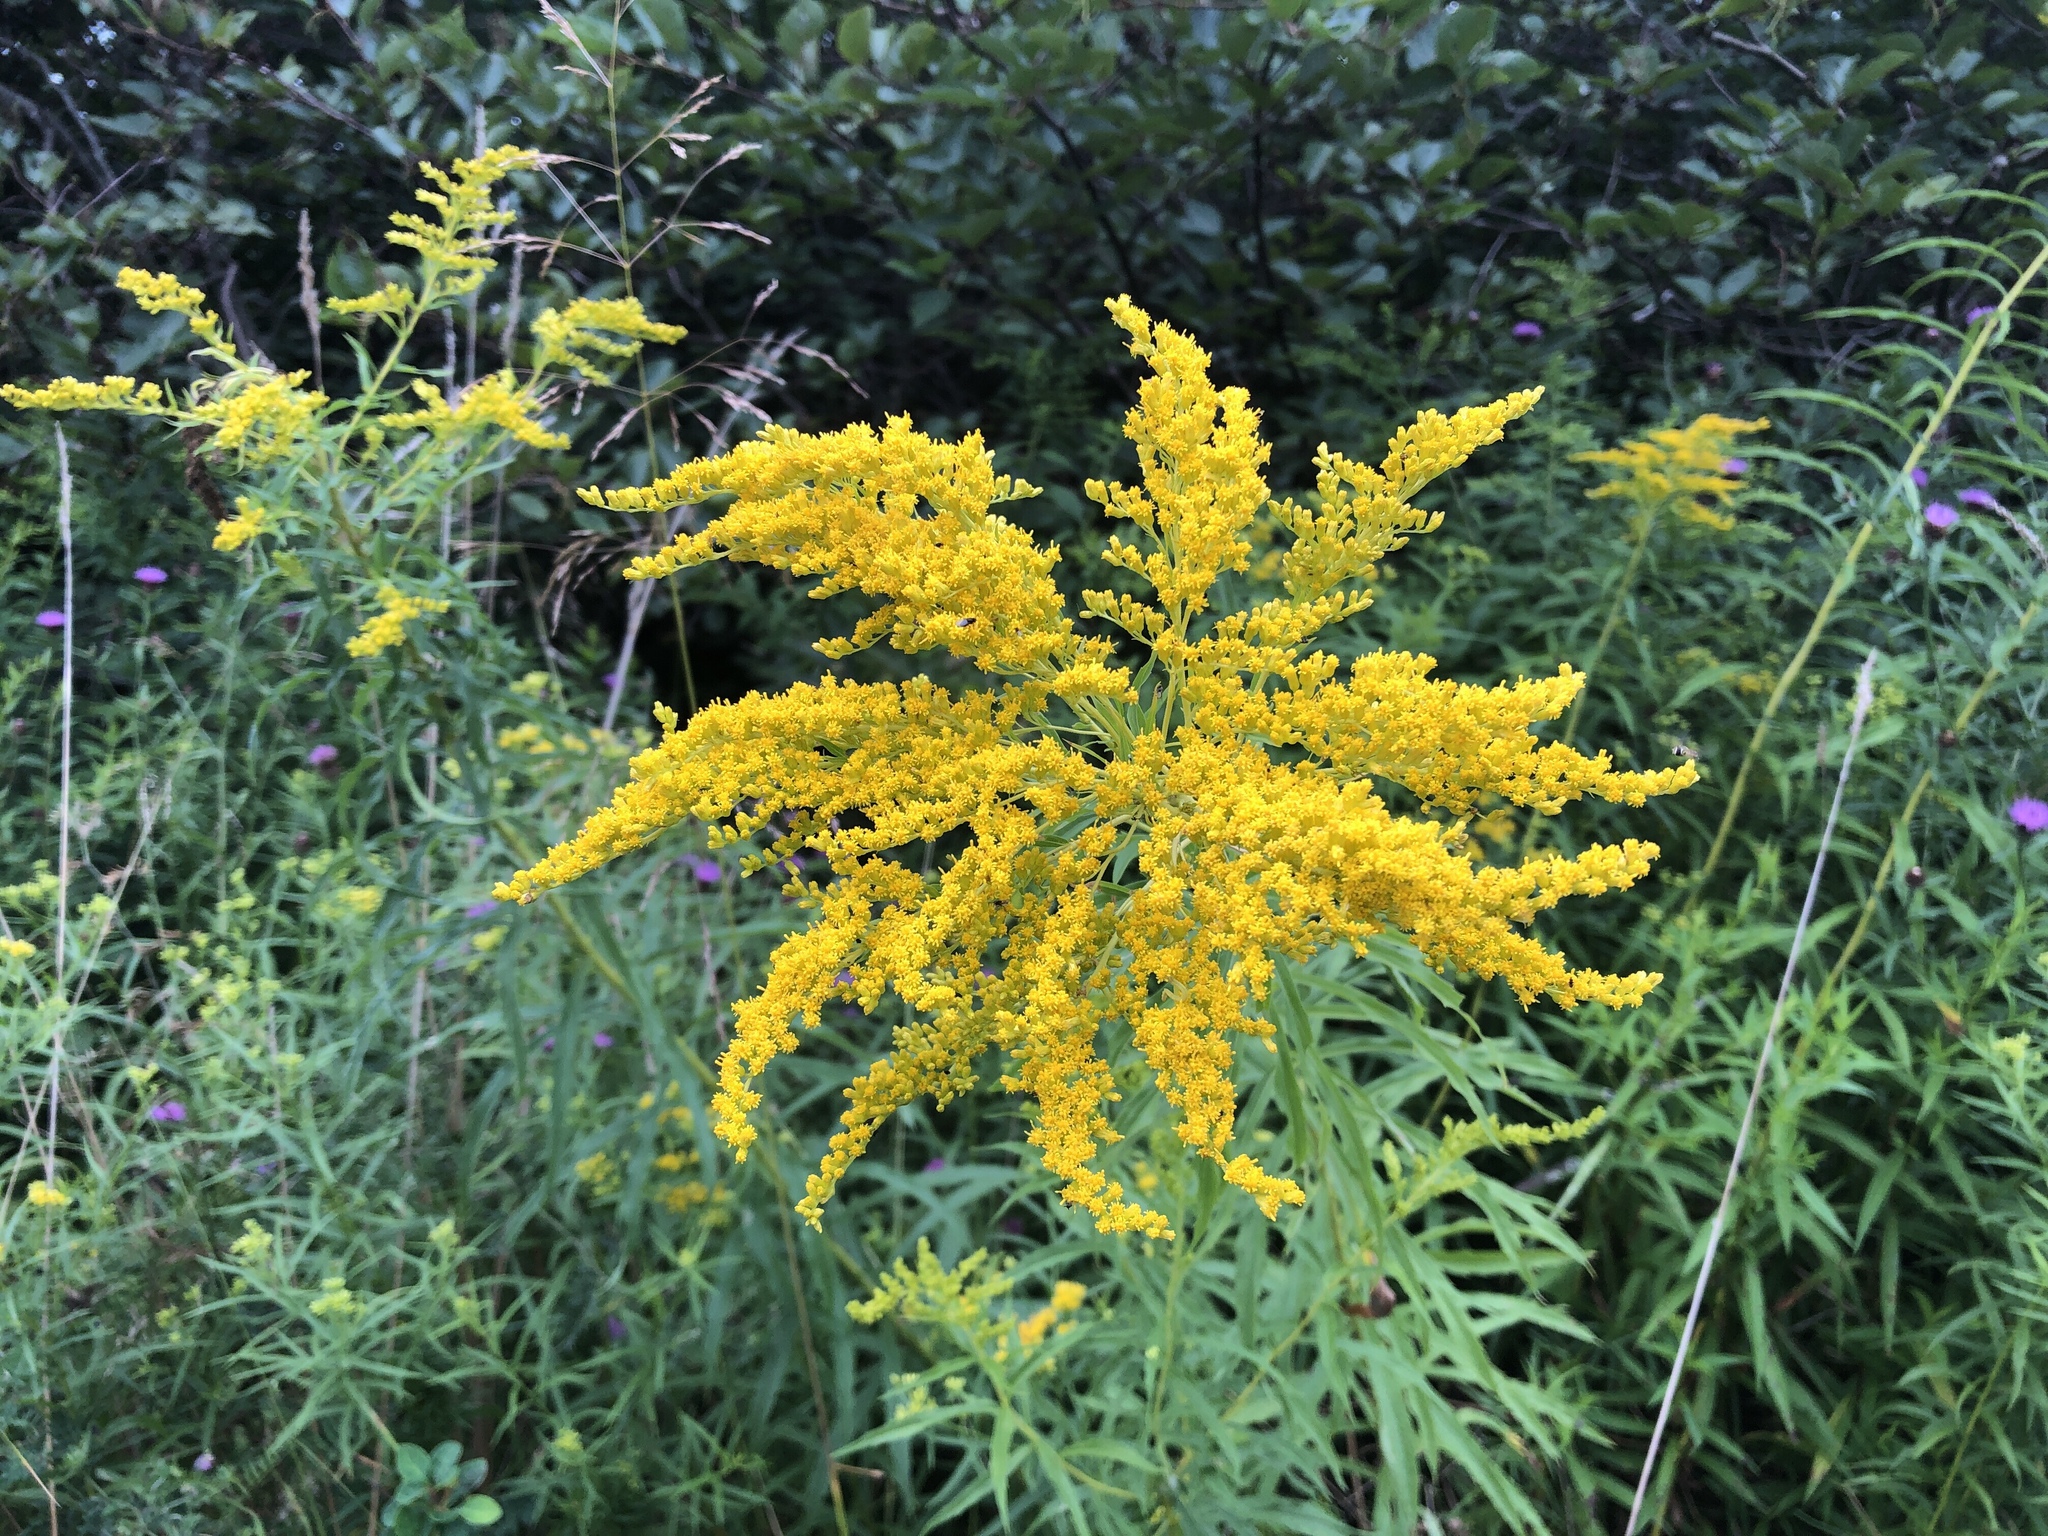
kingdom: Plantae
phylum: Tracheophyta
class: Magnoliopsida
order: Asterales
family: Asteraceae
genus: Solidago
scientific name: Solidago canadensis
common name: Canada goldenrod
